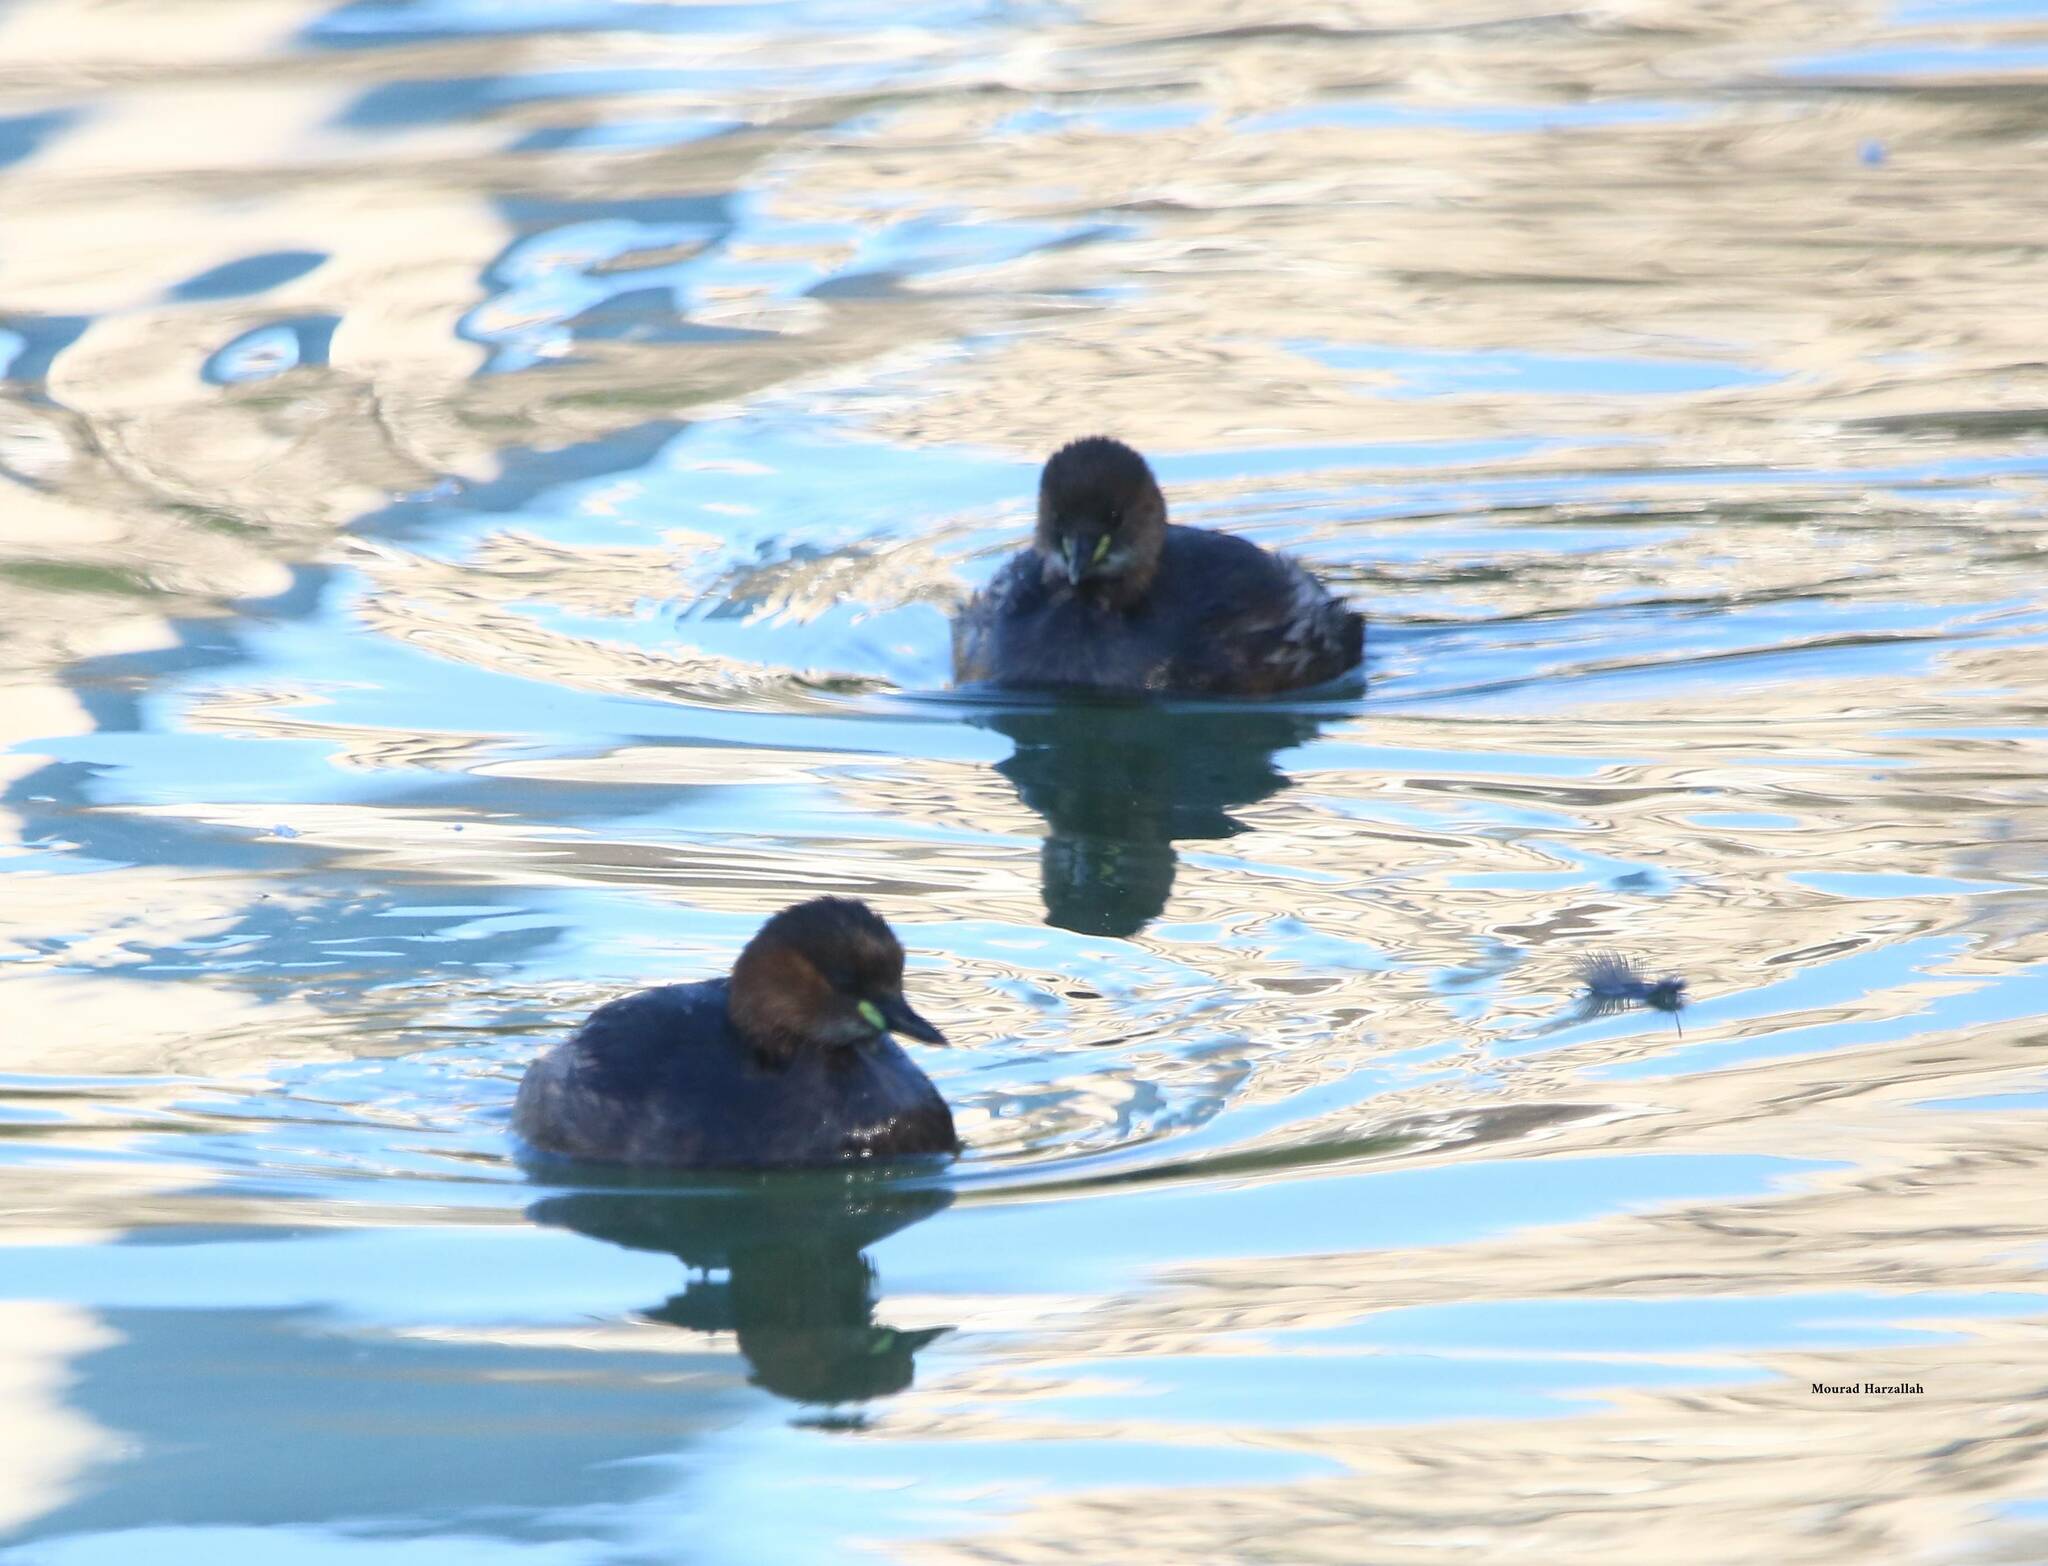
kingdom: Animalia
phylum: Chordata
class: Aves
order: Podicipediformes
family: Podicipedidae
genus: Tachybaptus
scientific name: Tachybaptus ruficollis
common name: Little grebe
